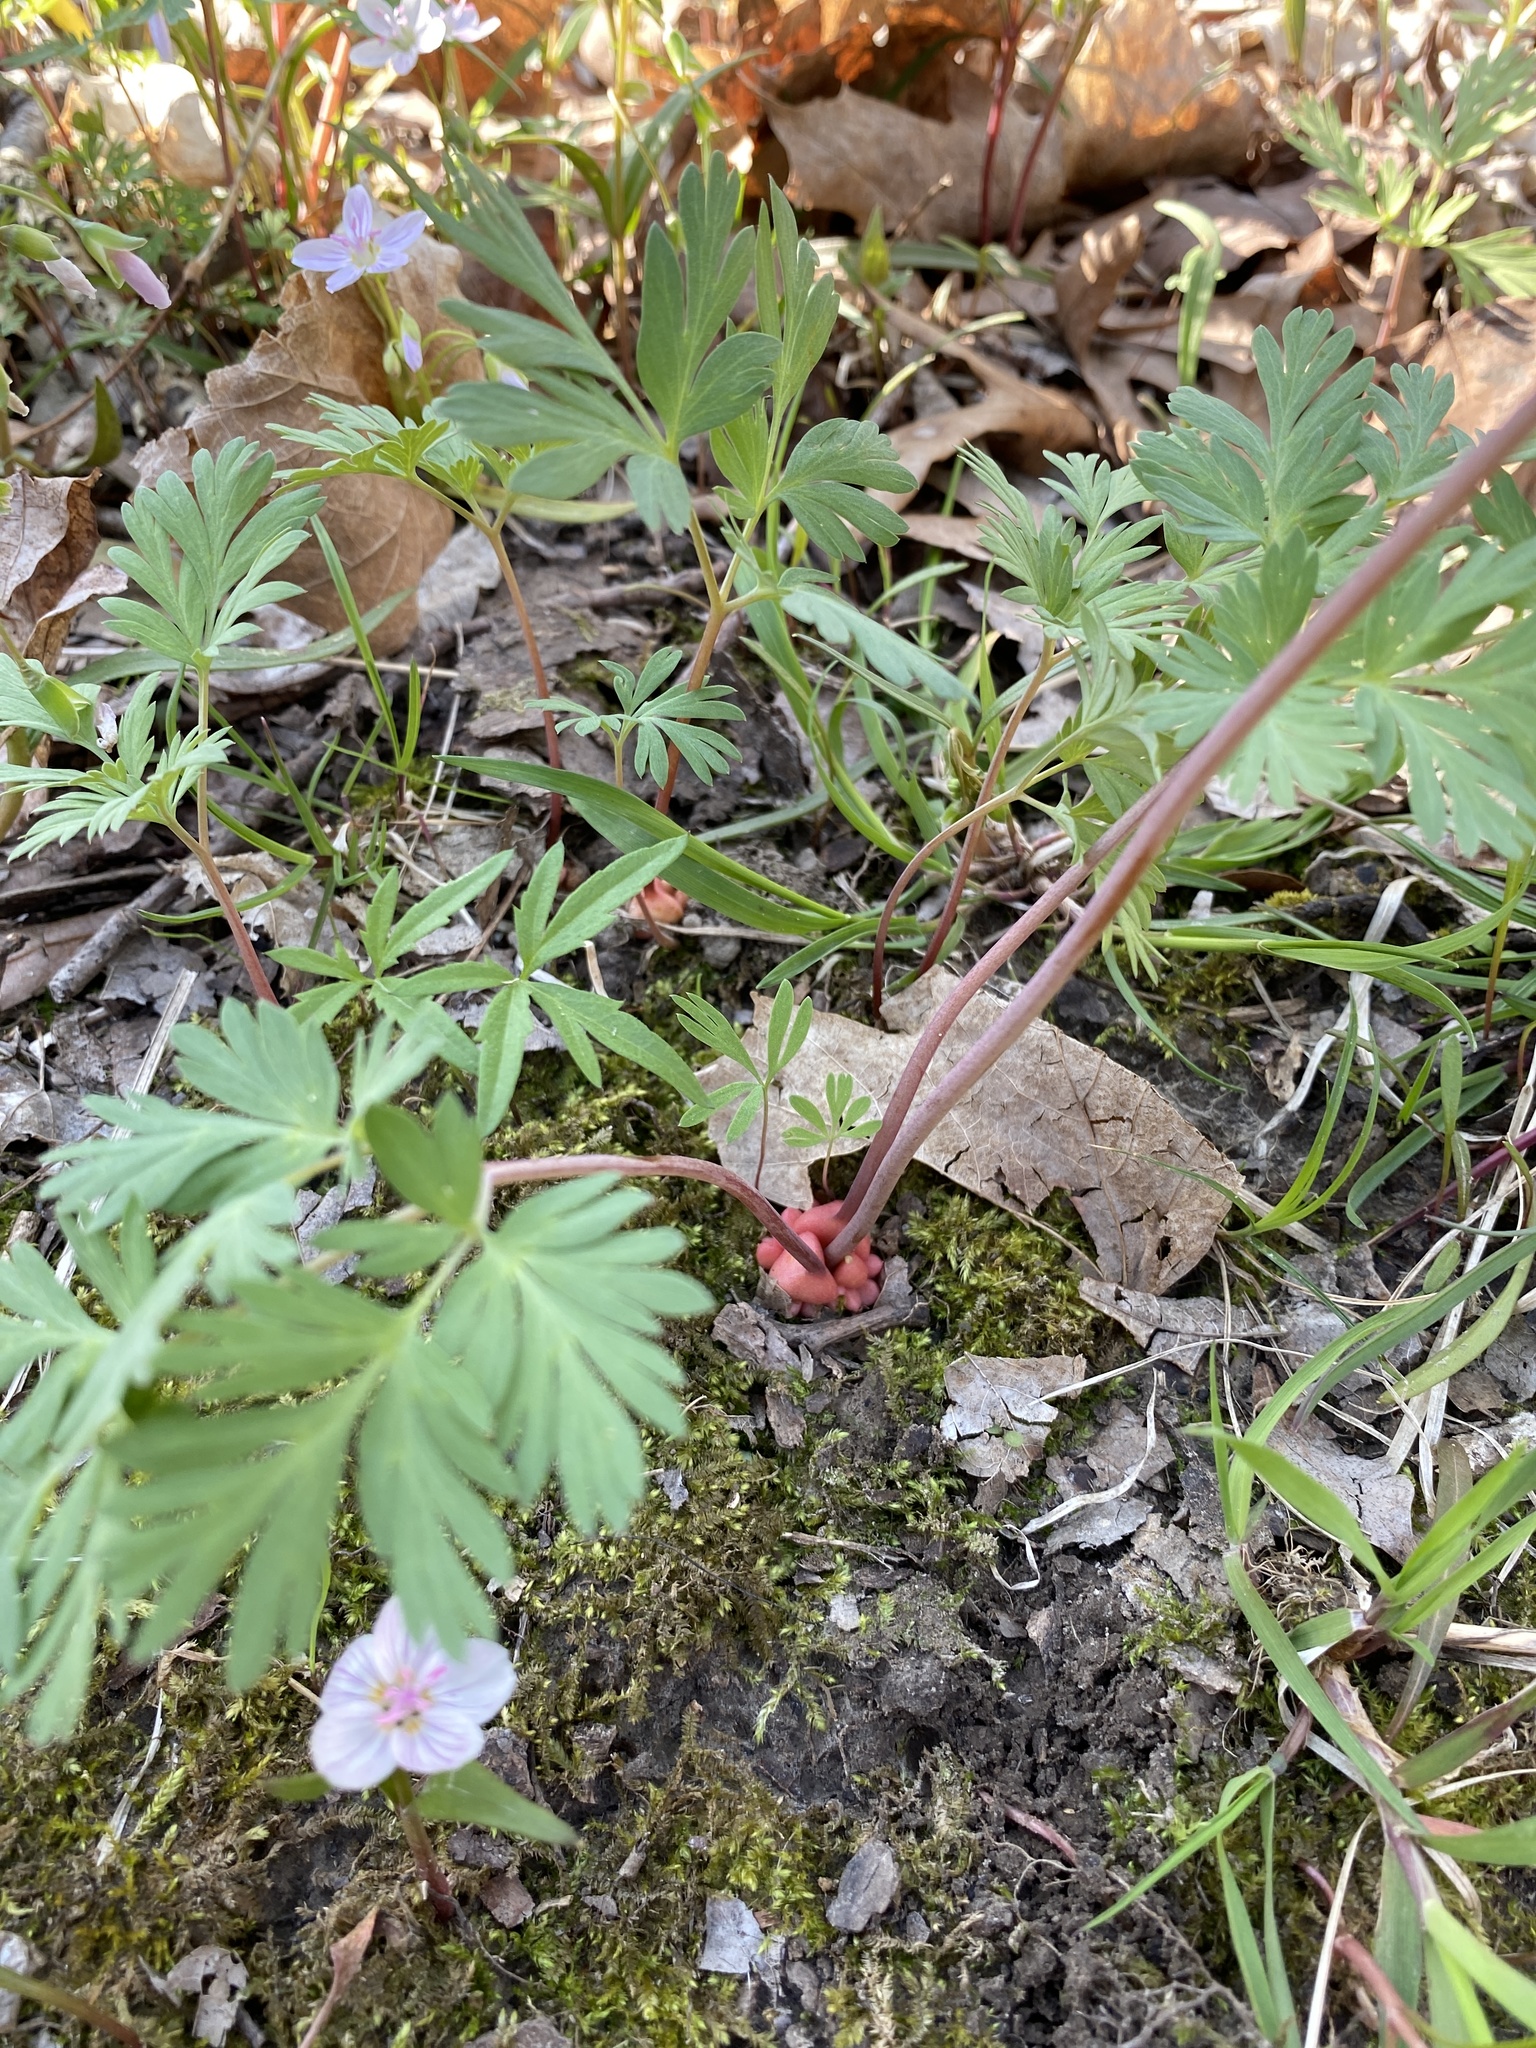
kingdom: Plantae
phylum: Tracheophyta
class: Magnoliopsida
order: Ranunculales
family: Papaveraceae
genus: Dicentra
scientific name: Dicentra cucullaria
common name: Dutchman's breeches
